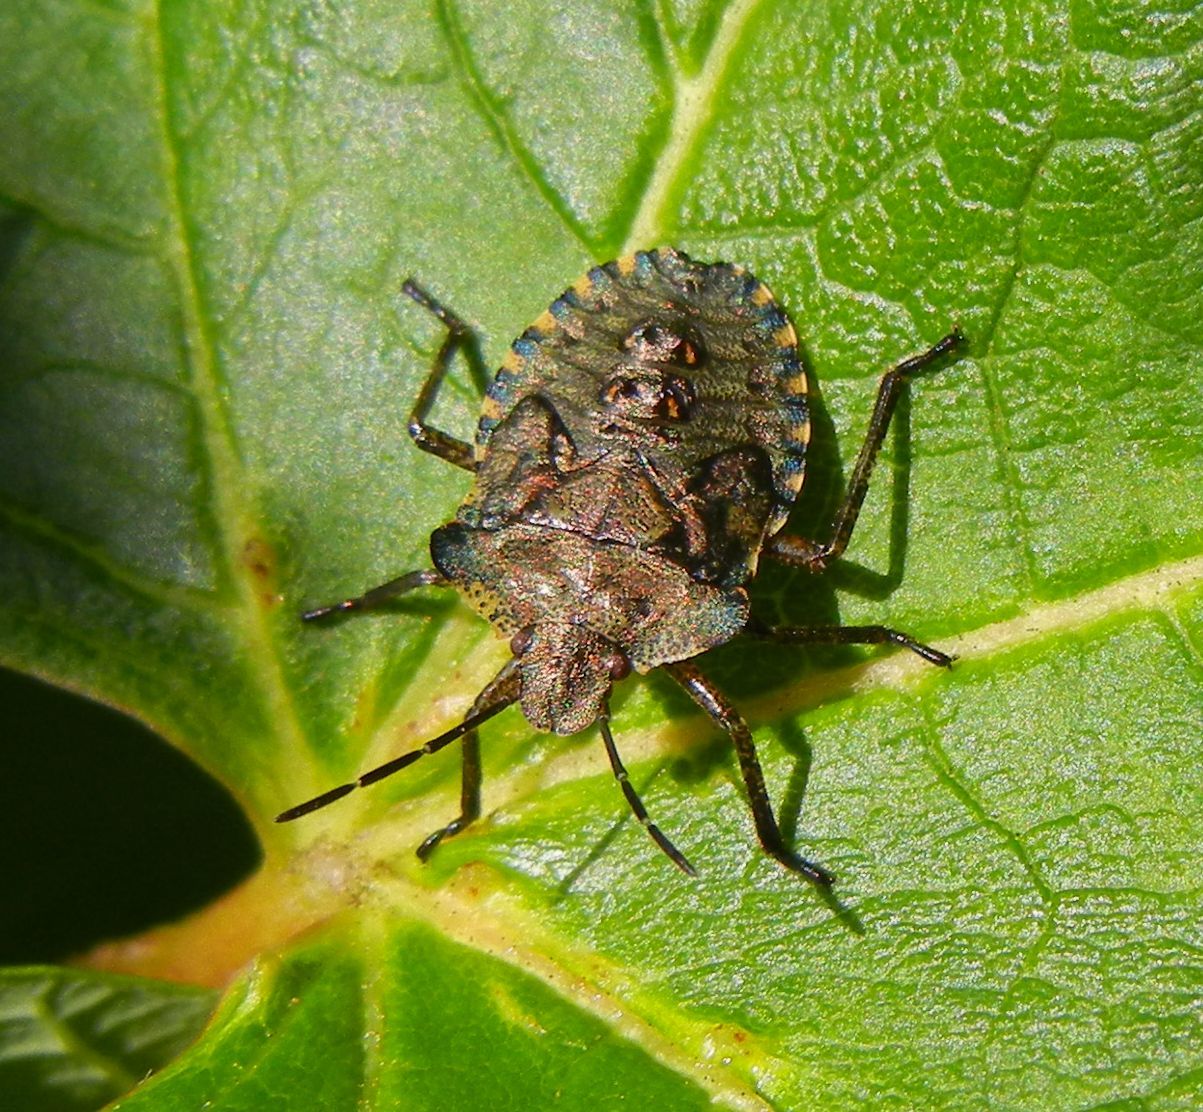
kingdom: Animalia
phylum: Arthropoda
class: Insecta
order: Hemiptera
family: Pentatomidae
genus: Pentatoma
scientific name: Pentatoma rufipes
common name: Forest bug
